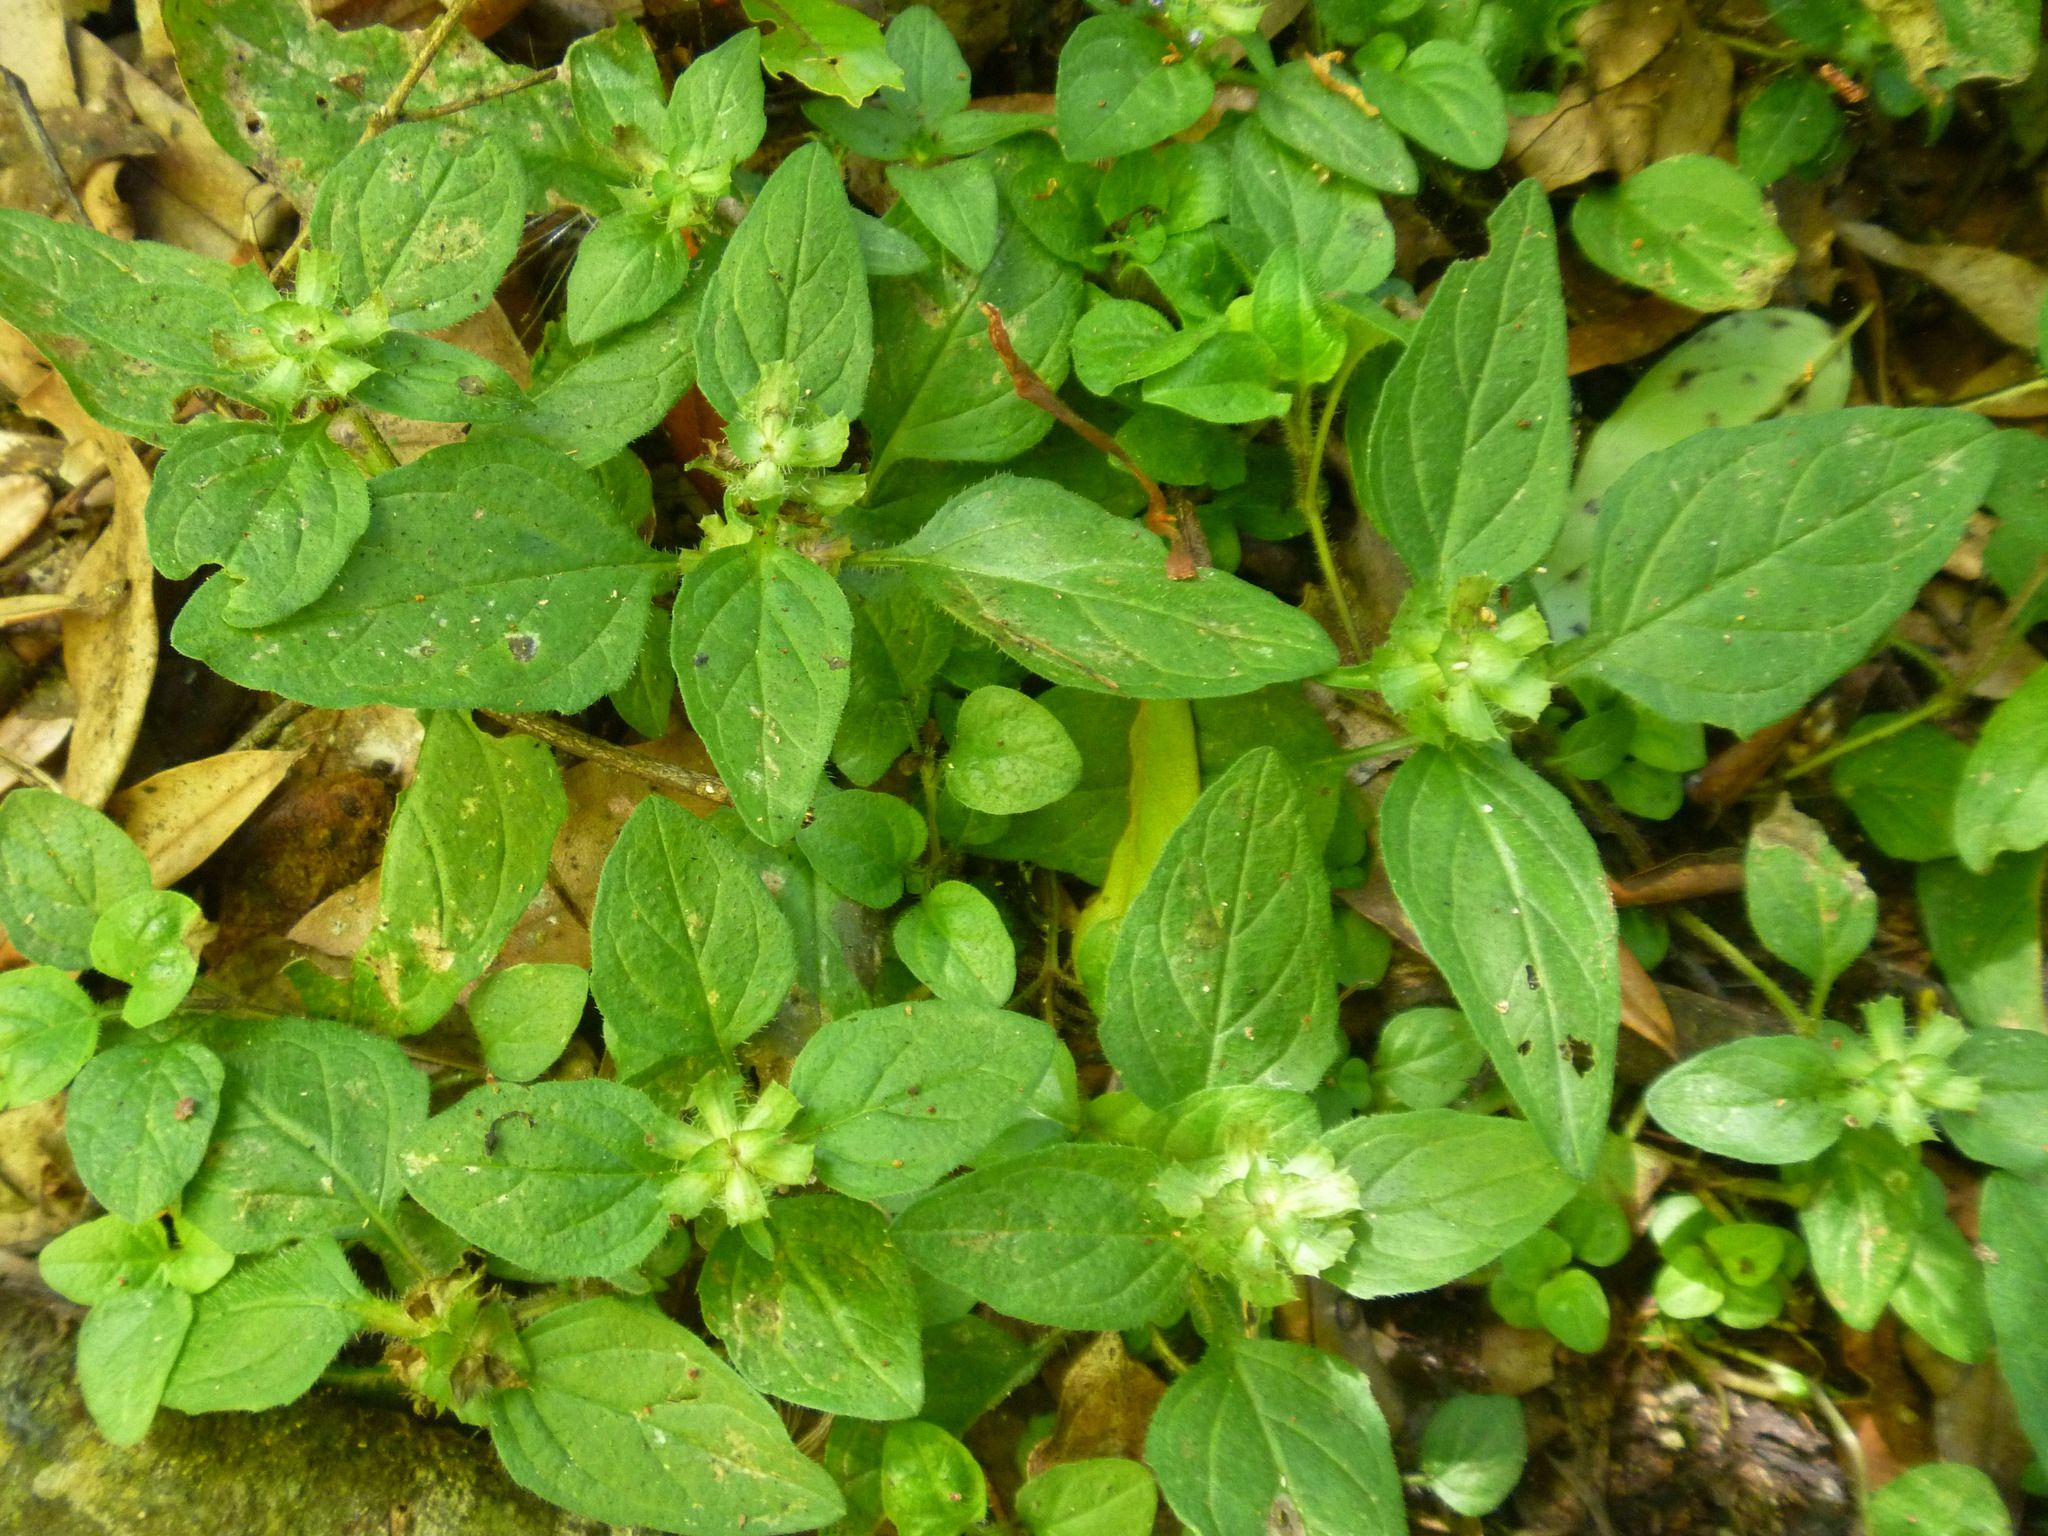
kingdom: Plantae
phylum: Tracheophyta
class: Magnoliopsida
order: Lamiales
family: Lamiaceae
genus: Prunella
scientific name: Prunella vulgaris
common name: Heal-all
